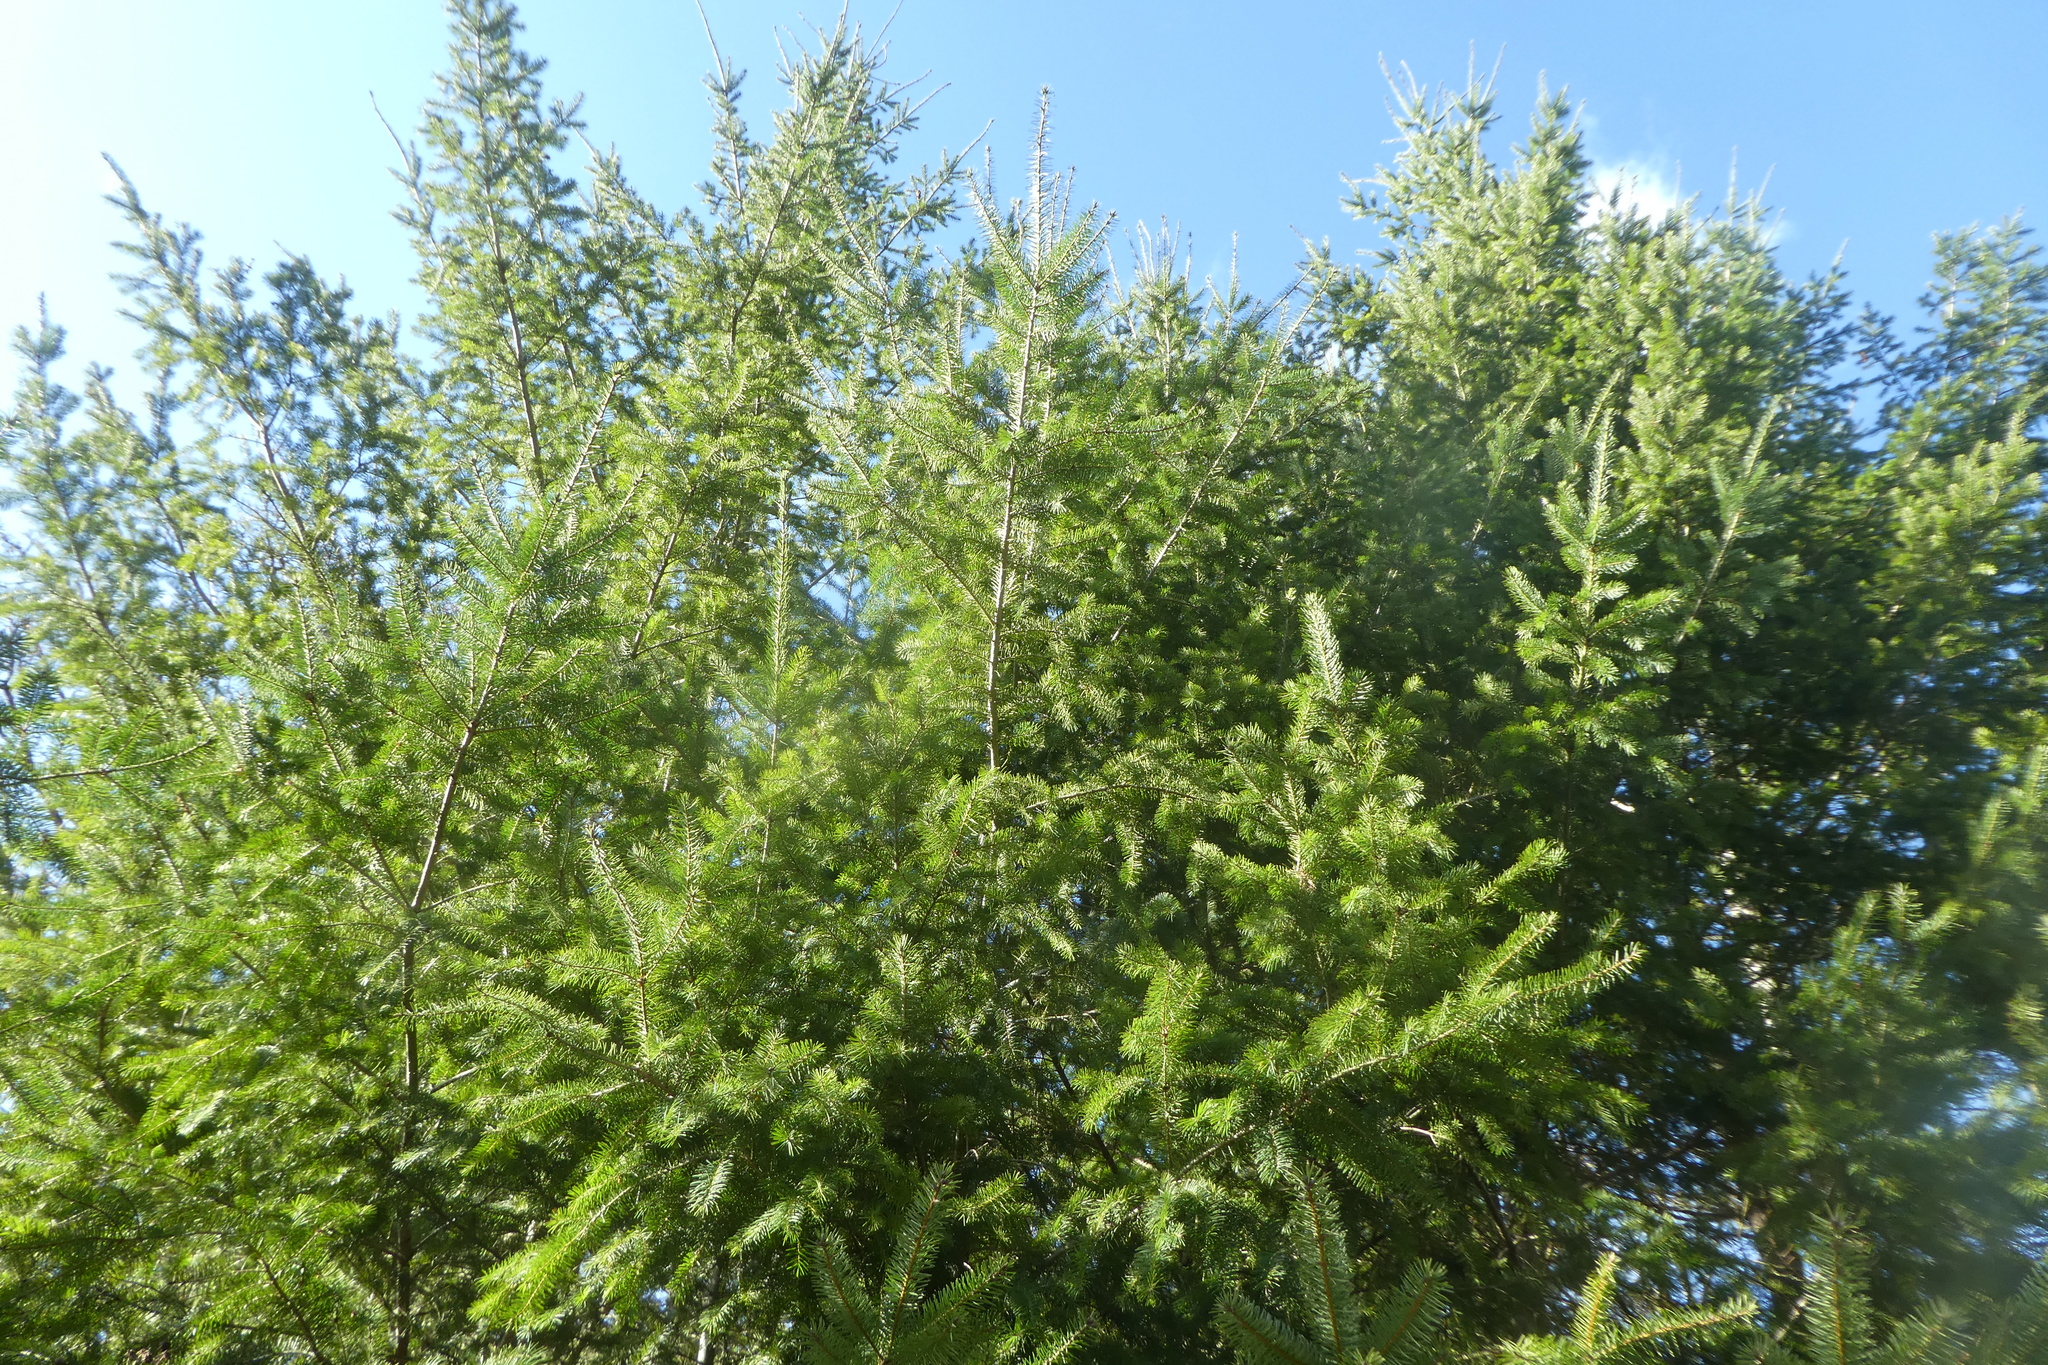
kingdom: Plantae
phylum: Tracheophyta
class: Pinopsida
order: Pinales
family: Pinaceae
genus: Pseudotsuga
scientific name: Pseudotsuga menziesii
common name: Douglas fir
